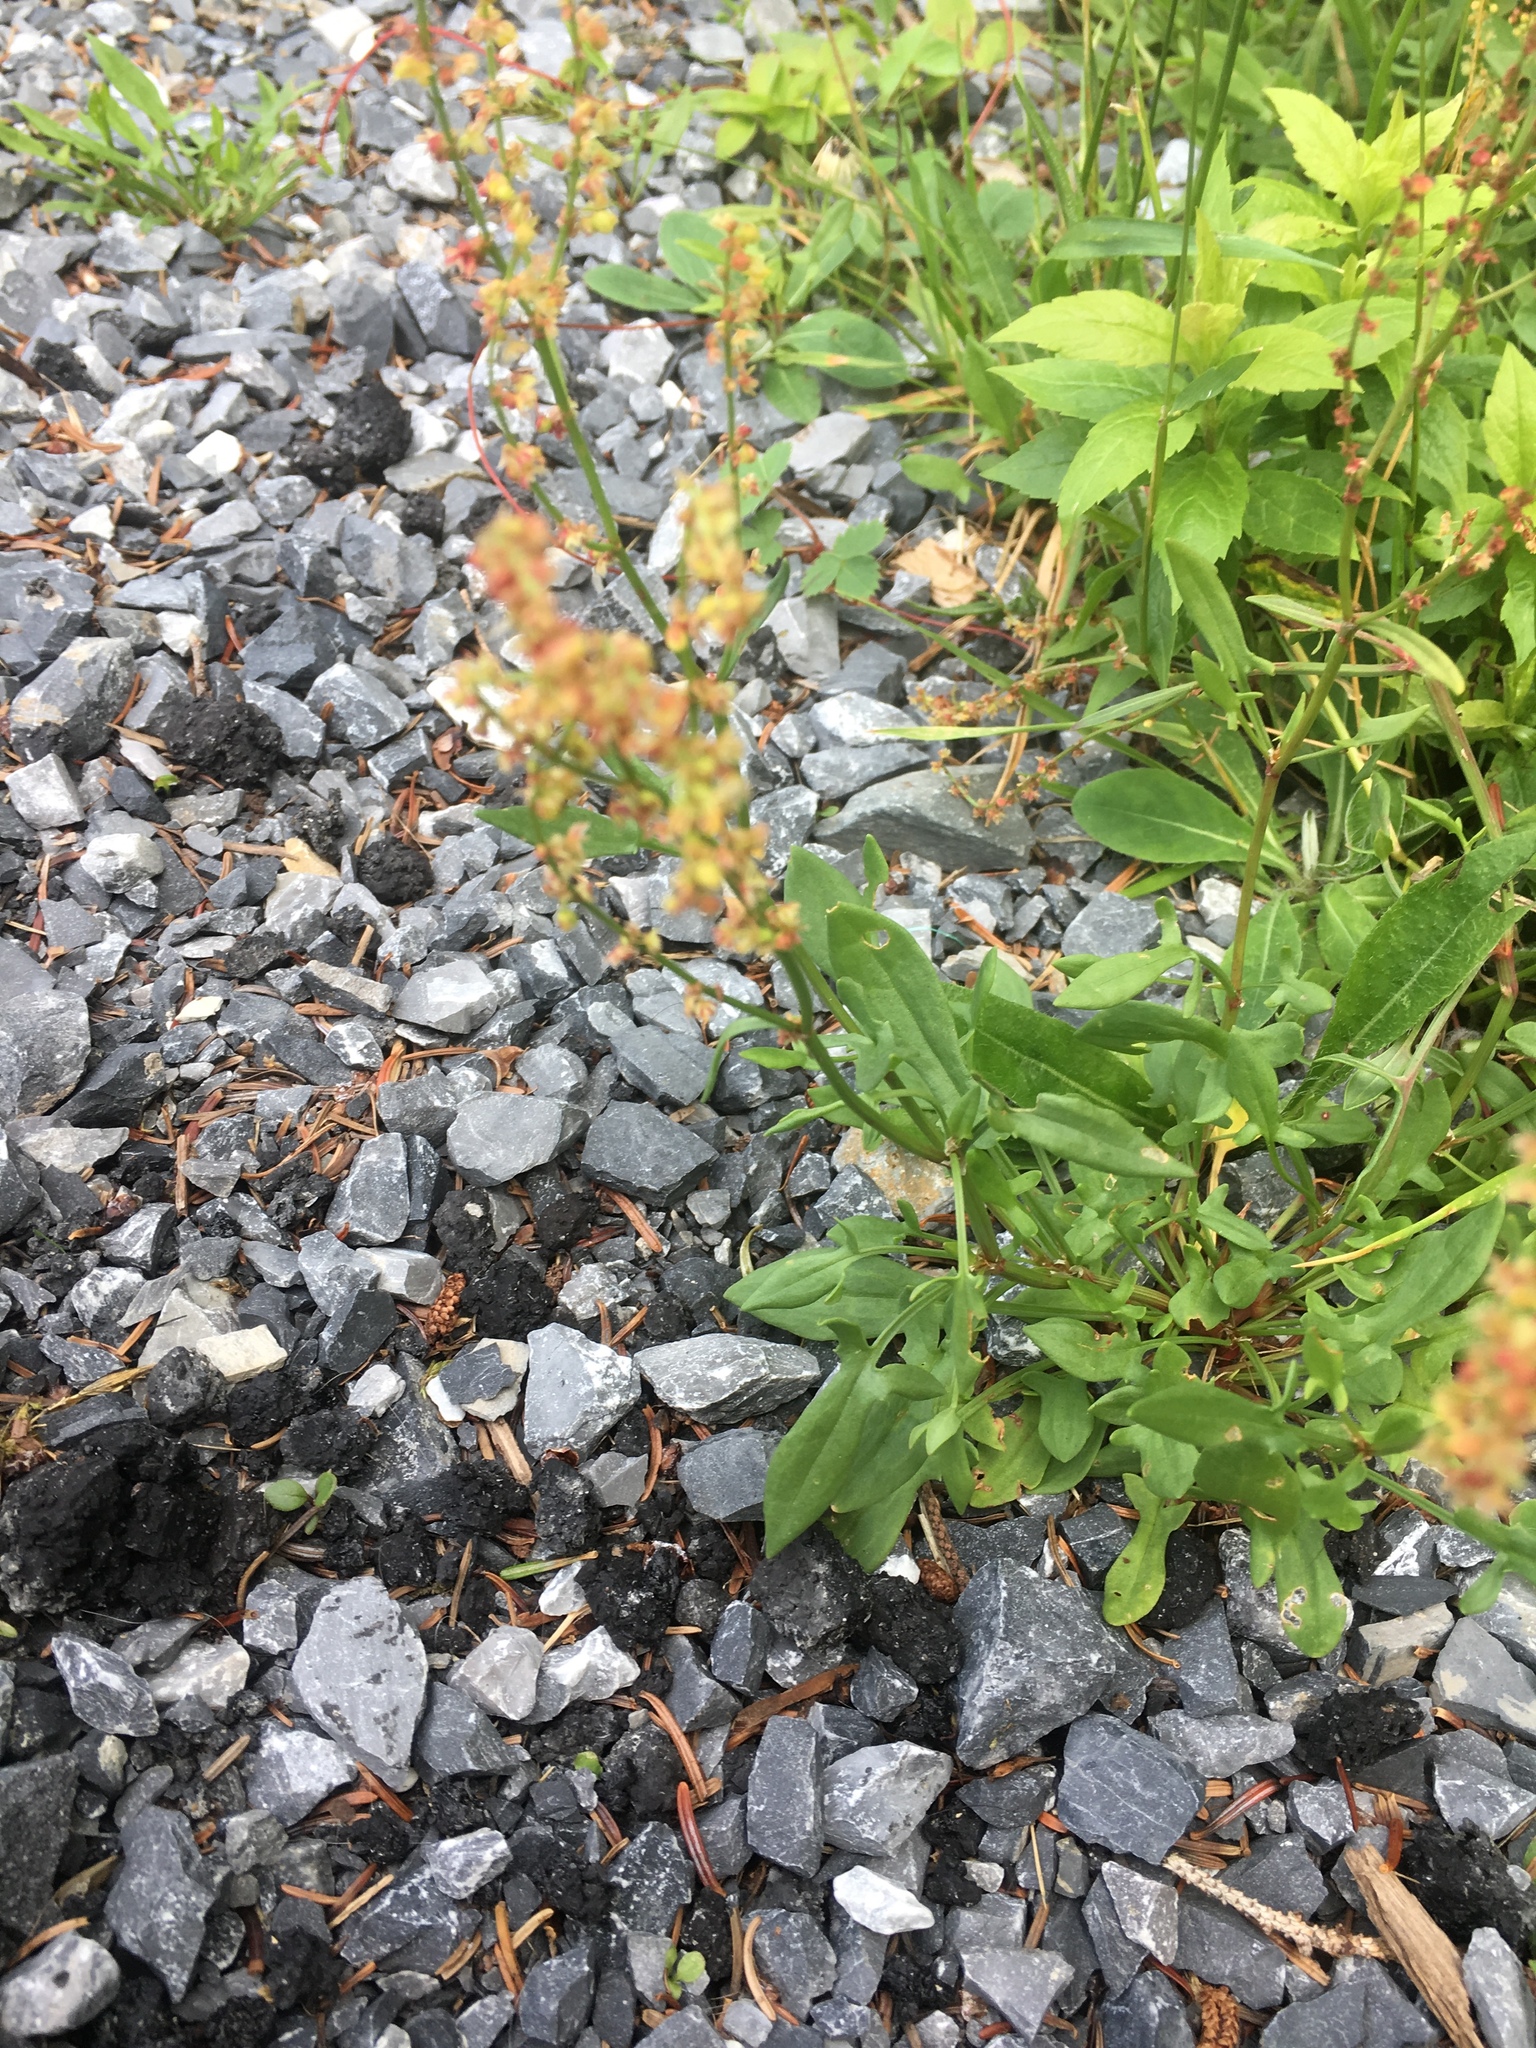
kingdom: Plantae
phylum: Tracheophyta
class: Magnoliopsida
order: Caryophyllales
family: Polygonaceae
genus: Rumex
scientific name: Rumex acetosella
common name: Common sheep sorrel
